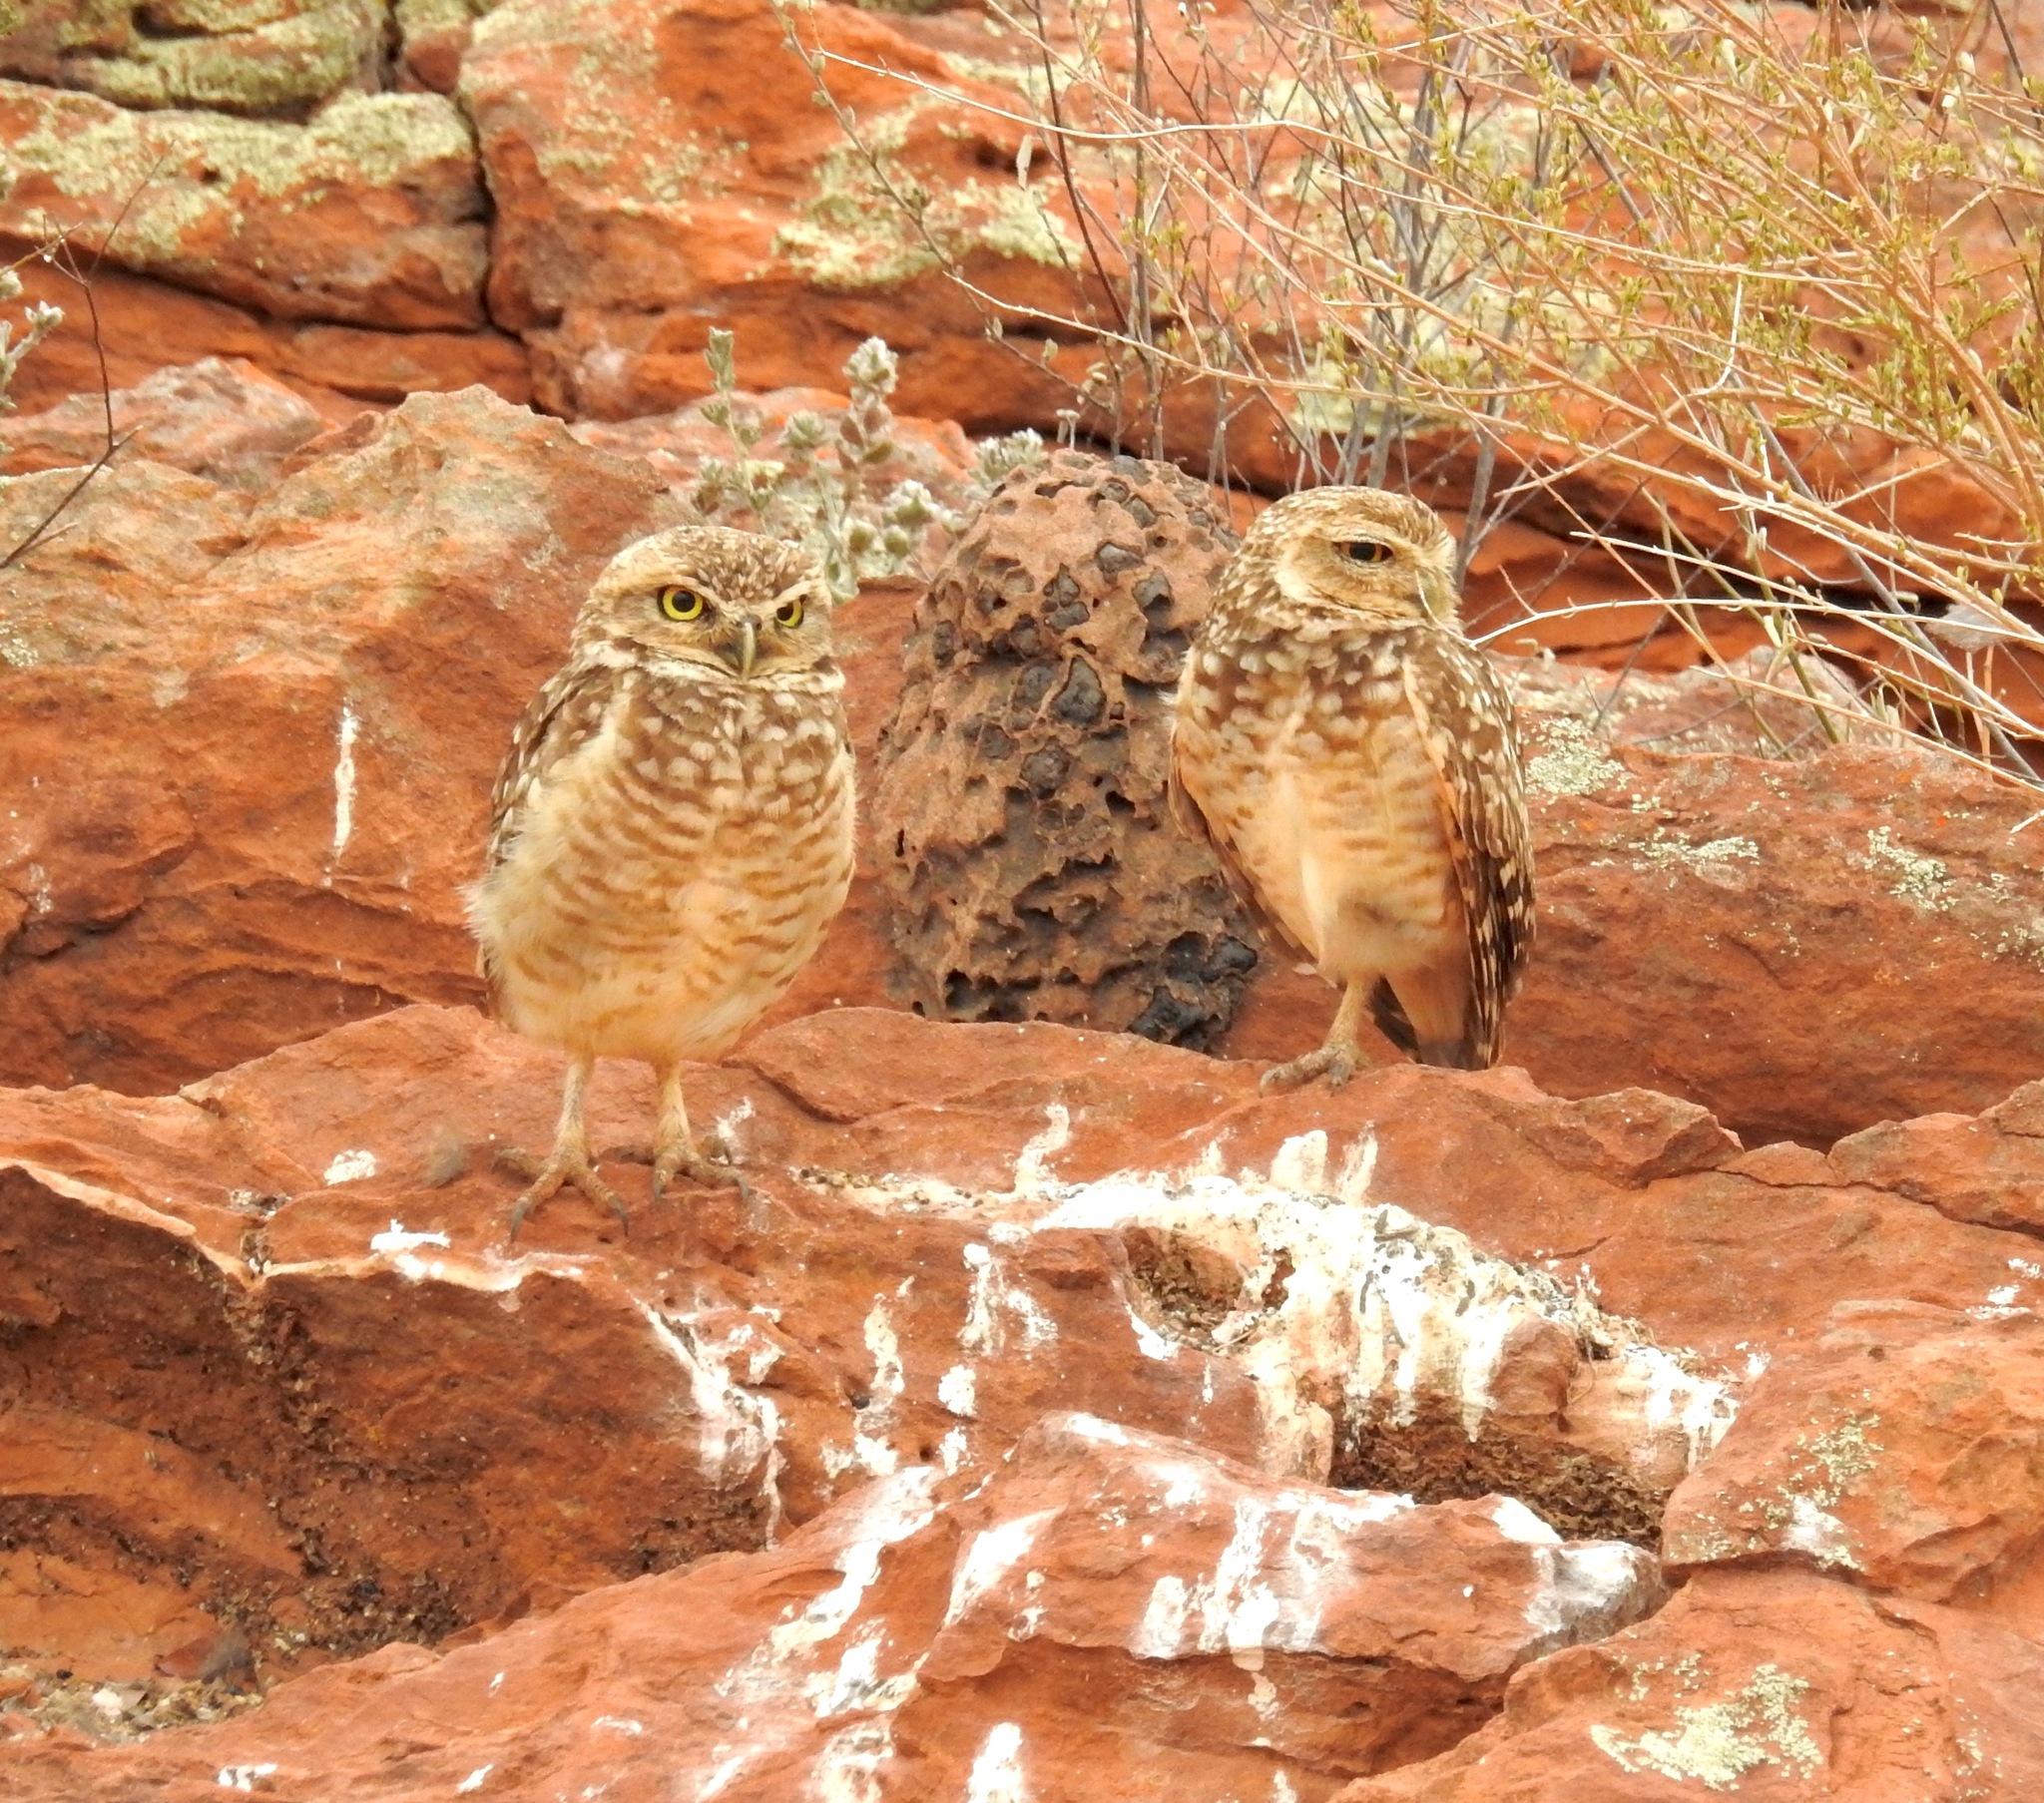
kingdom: Animalia
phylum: Chordata
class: Aves
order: Strigiformes
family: Strigidae
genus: Athene
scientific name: Athene cunicularia
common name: Burrowing owl
